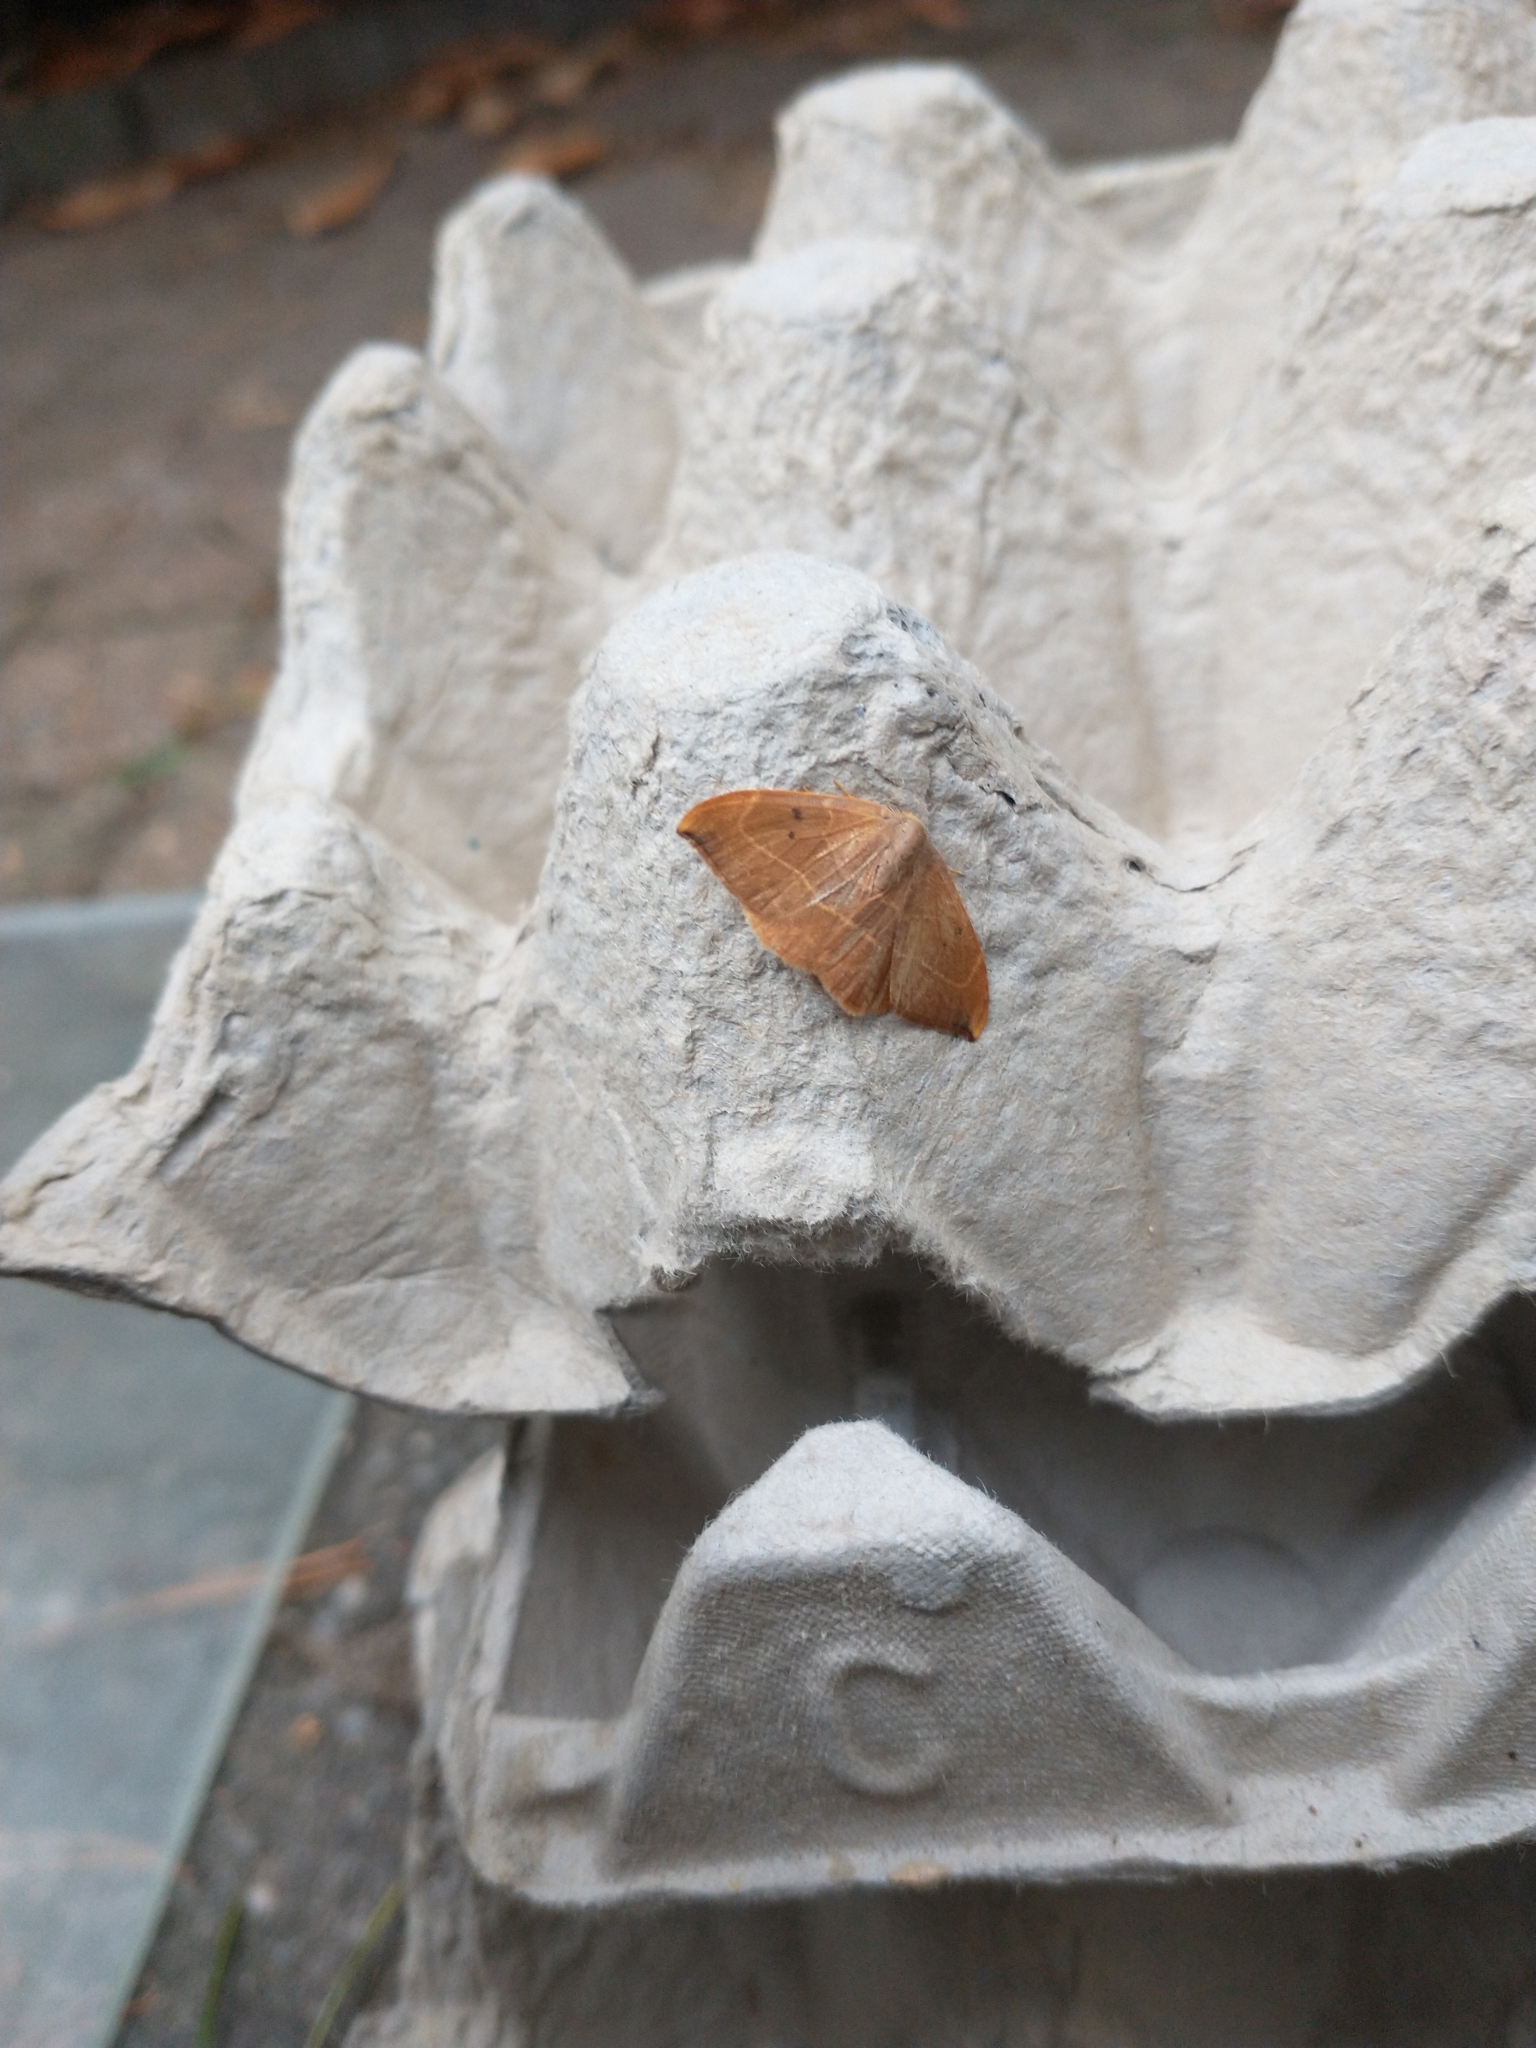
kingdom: Animalia
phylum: Arthropoda
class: Insecta
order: Lepidoptera
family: Drepanidae
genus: Watsonalla
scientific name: Watsonalla binaria
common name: Oak hook-tip
